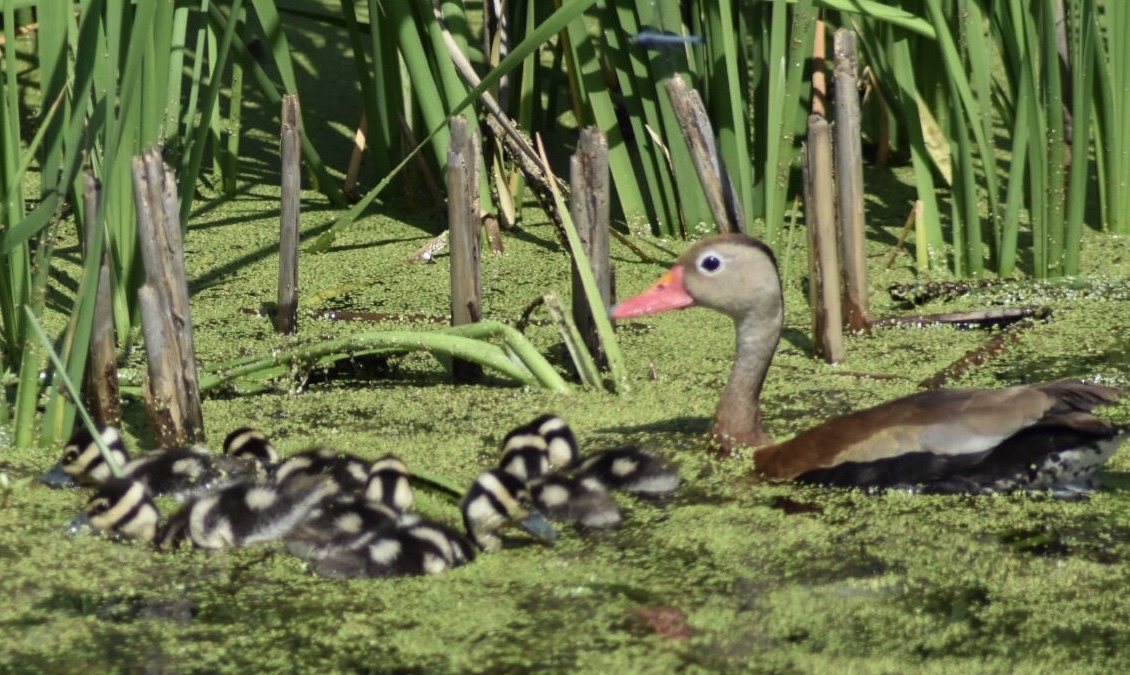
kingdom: Animalia
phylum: Chordata
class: Aves
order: Anseriformes
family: Anatidae
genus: Dendrocygna
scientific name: Dendrocygna autumnalis
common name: Black-bellied whistling duck
